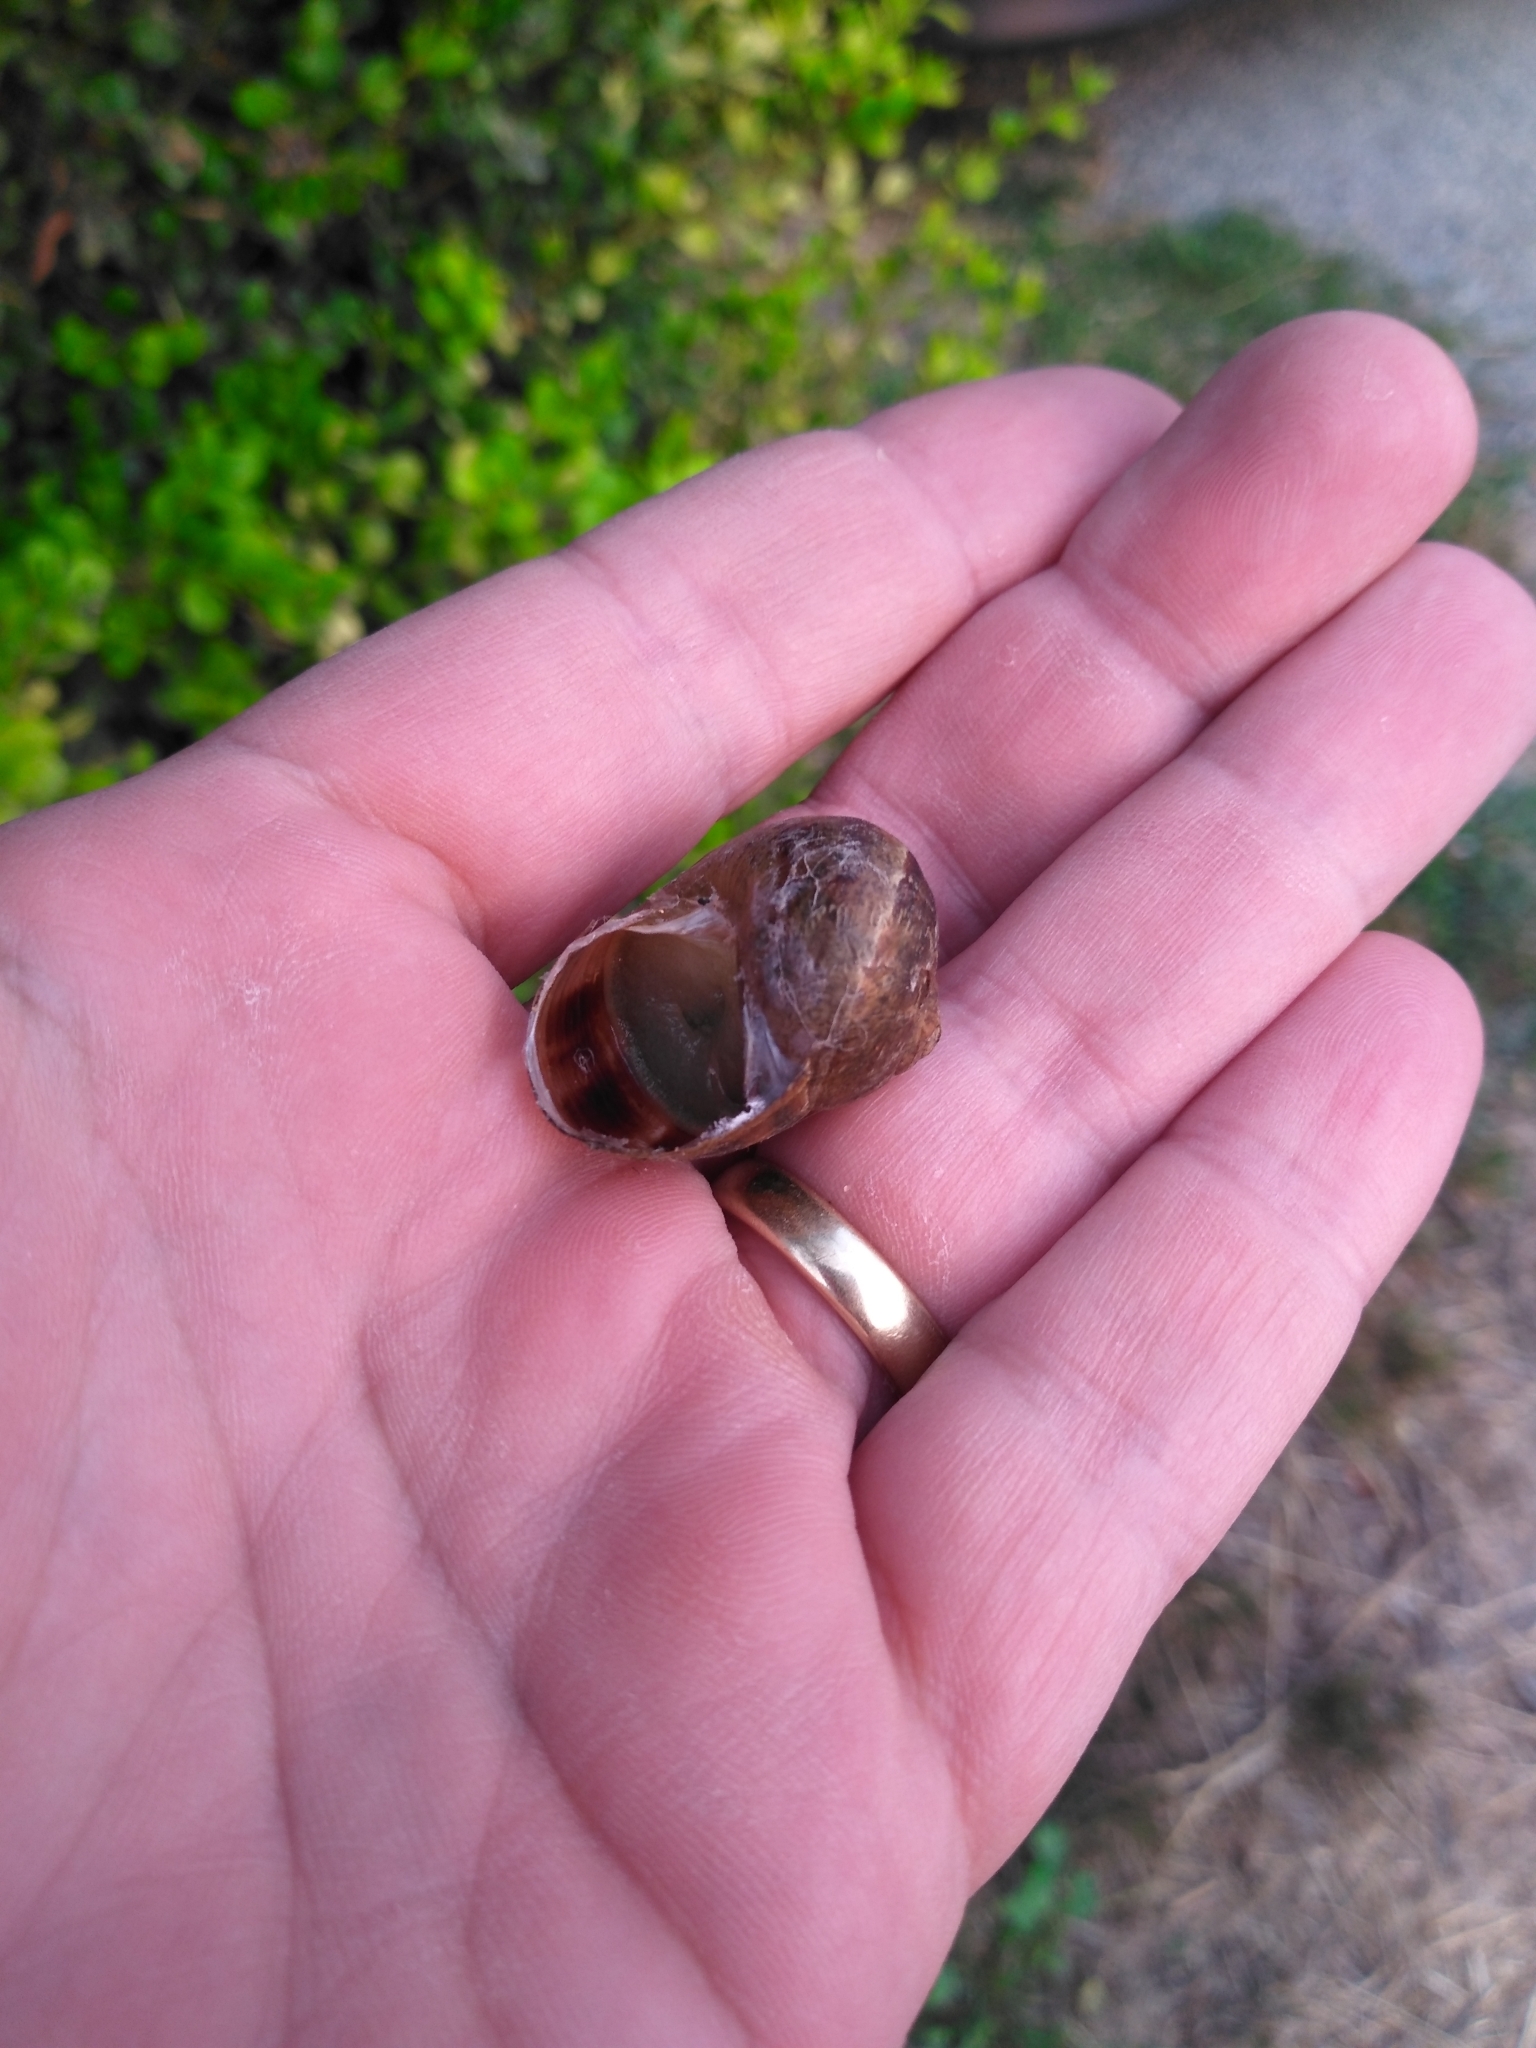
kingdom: Animalia
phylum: Mollusca
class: Gastropoda
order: Stylommatophora
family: Helicidae
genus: Cornu
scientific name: Cornu aspersum
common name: Brown garden snail
